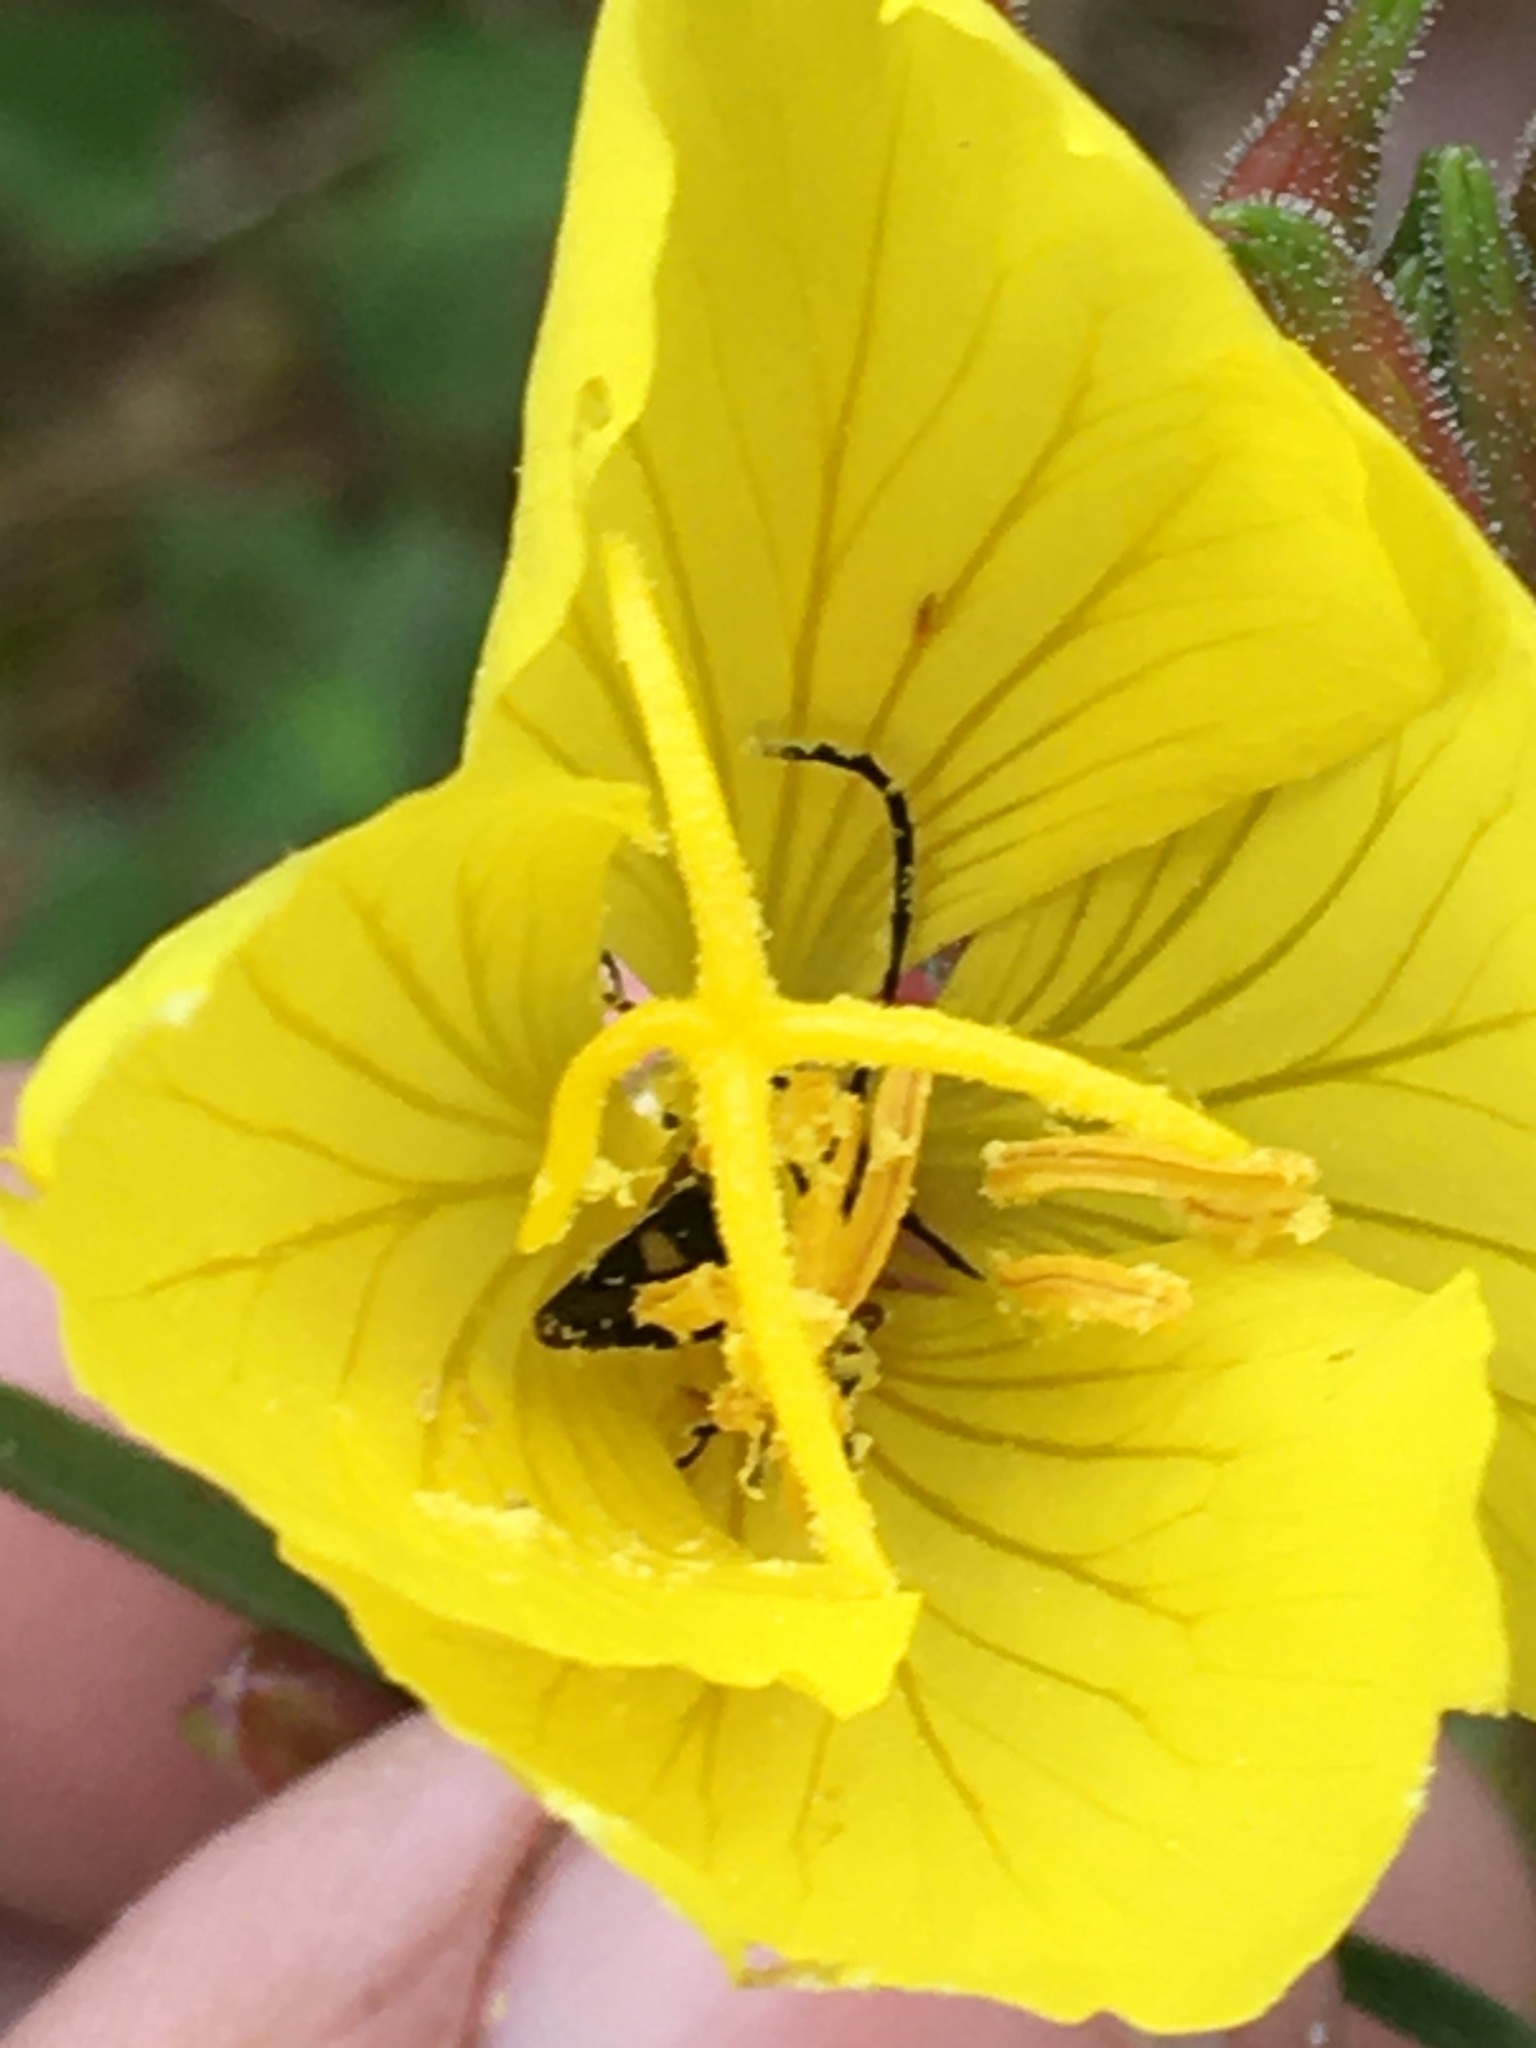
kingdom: Plantae
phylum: Tracheophyta
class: Magnoliopsida
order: Myrtales
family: Onagraceae
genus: Oenothera
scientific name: Oenothera fruticosa
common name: Southern sundrops
